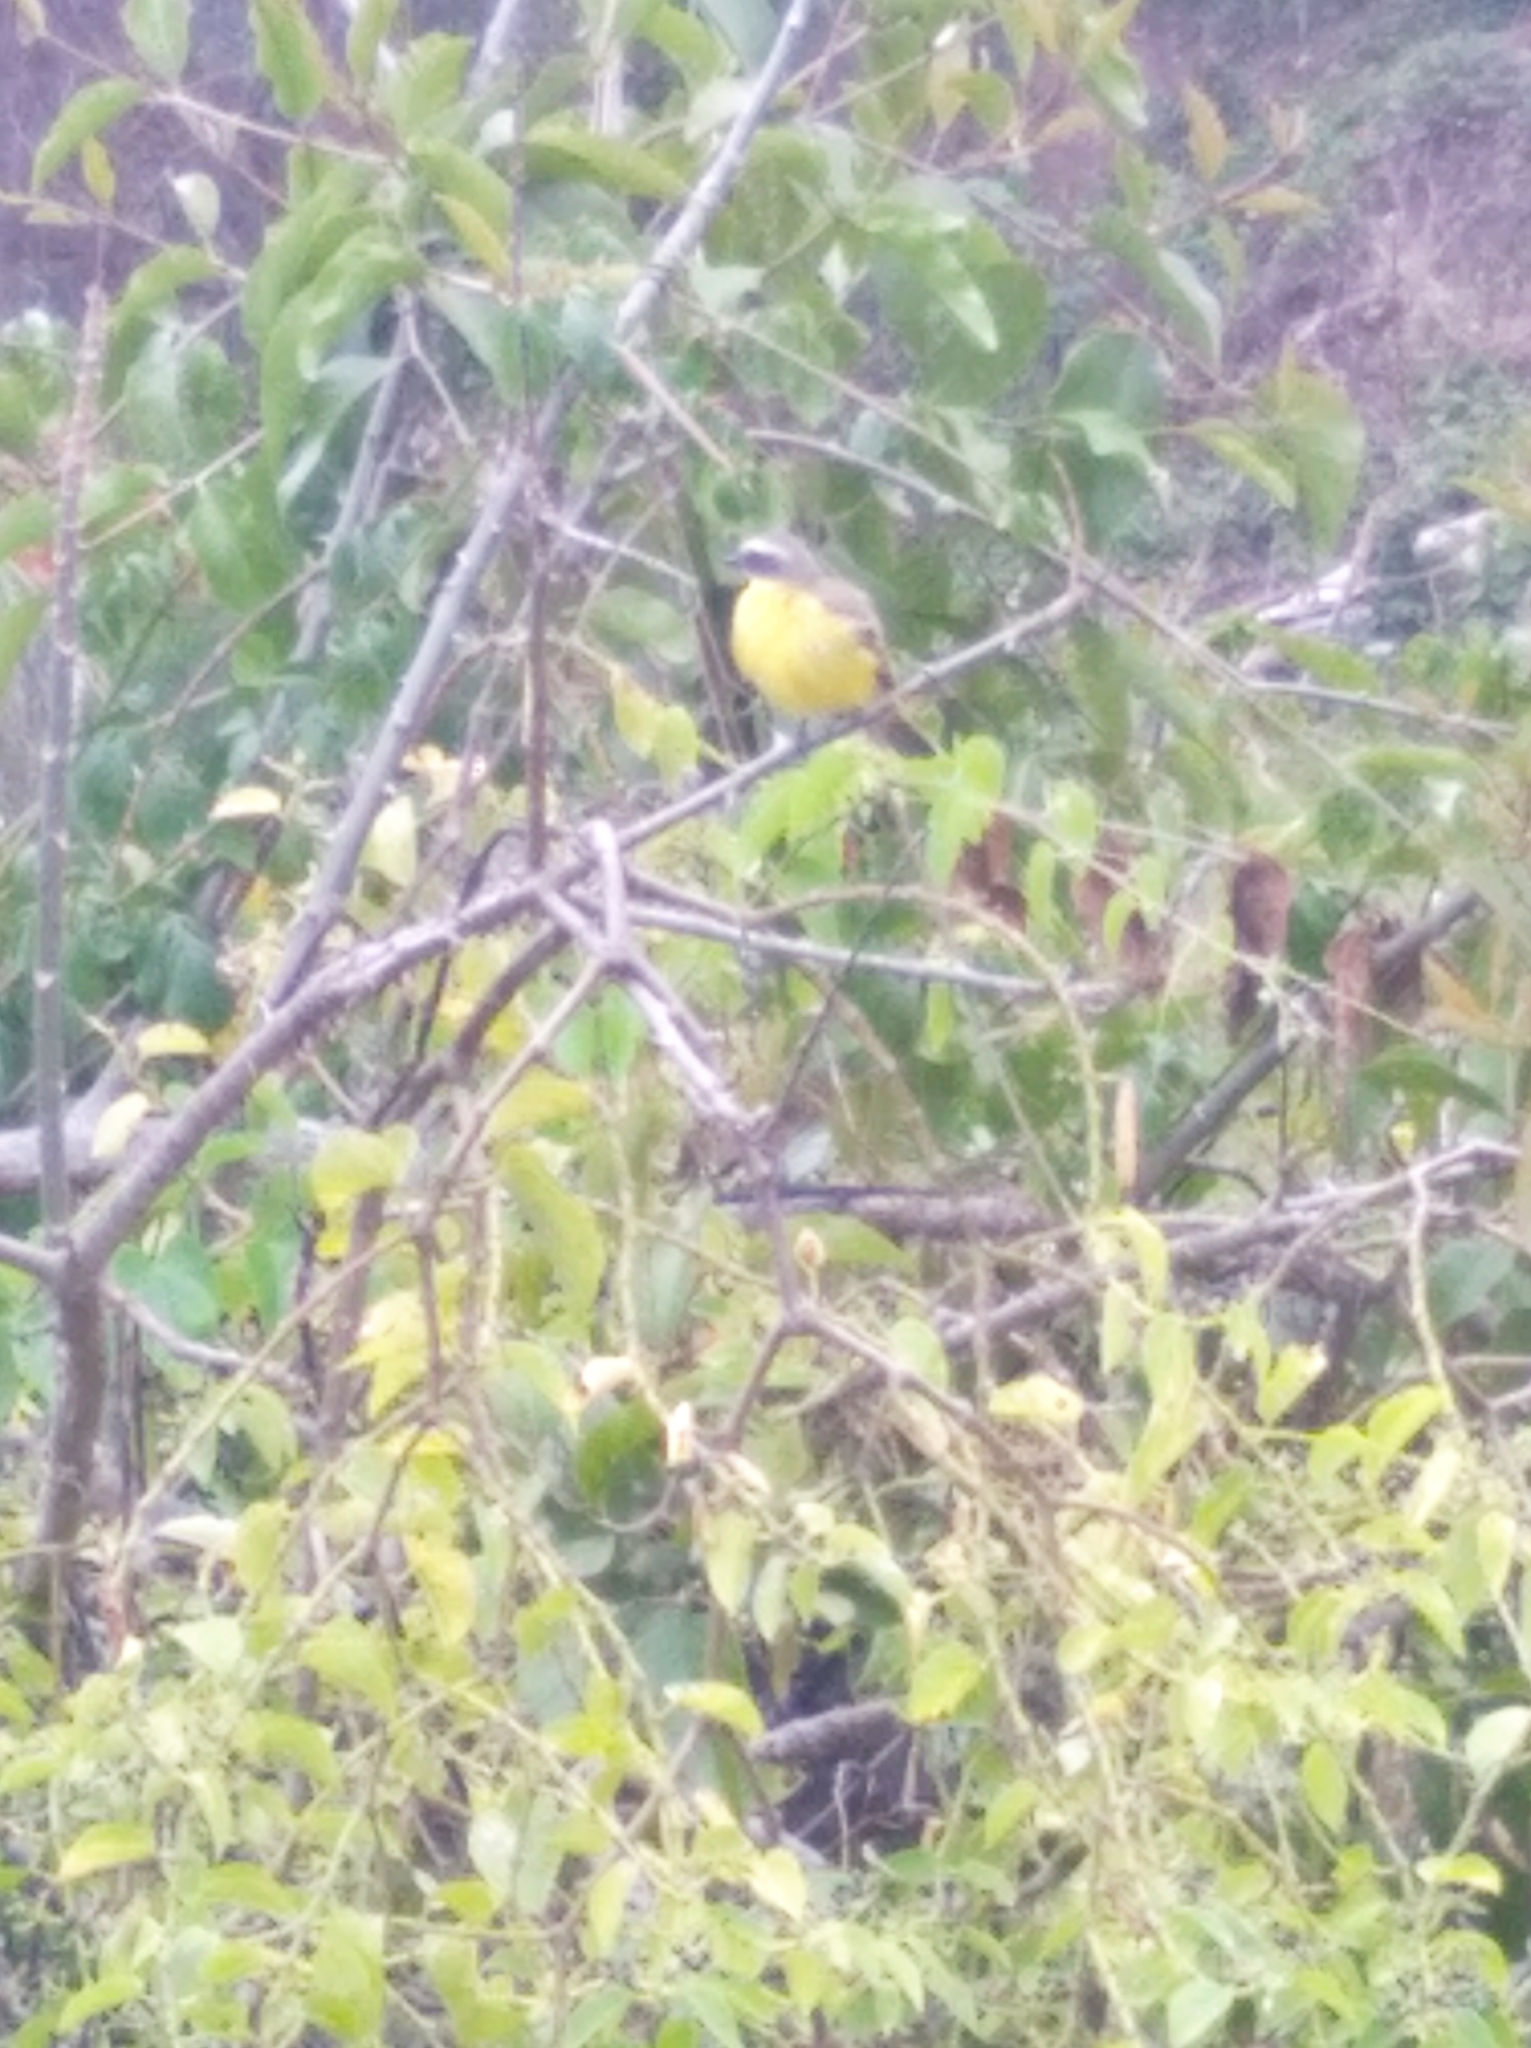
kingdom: Animalia
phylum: Chordata
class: Aves
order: Passeriformes
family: Tyrannidae
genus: Myiozetetes
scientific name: Myiozetetes similis
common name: Social flycatcher
